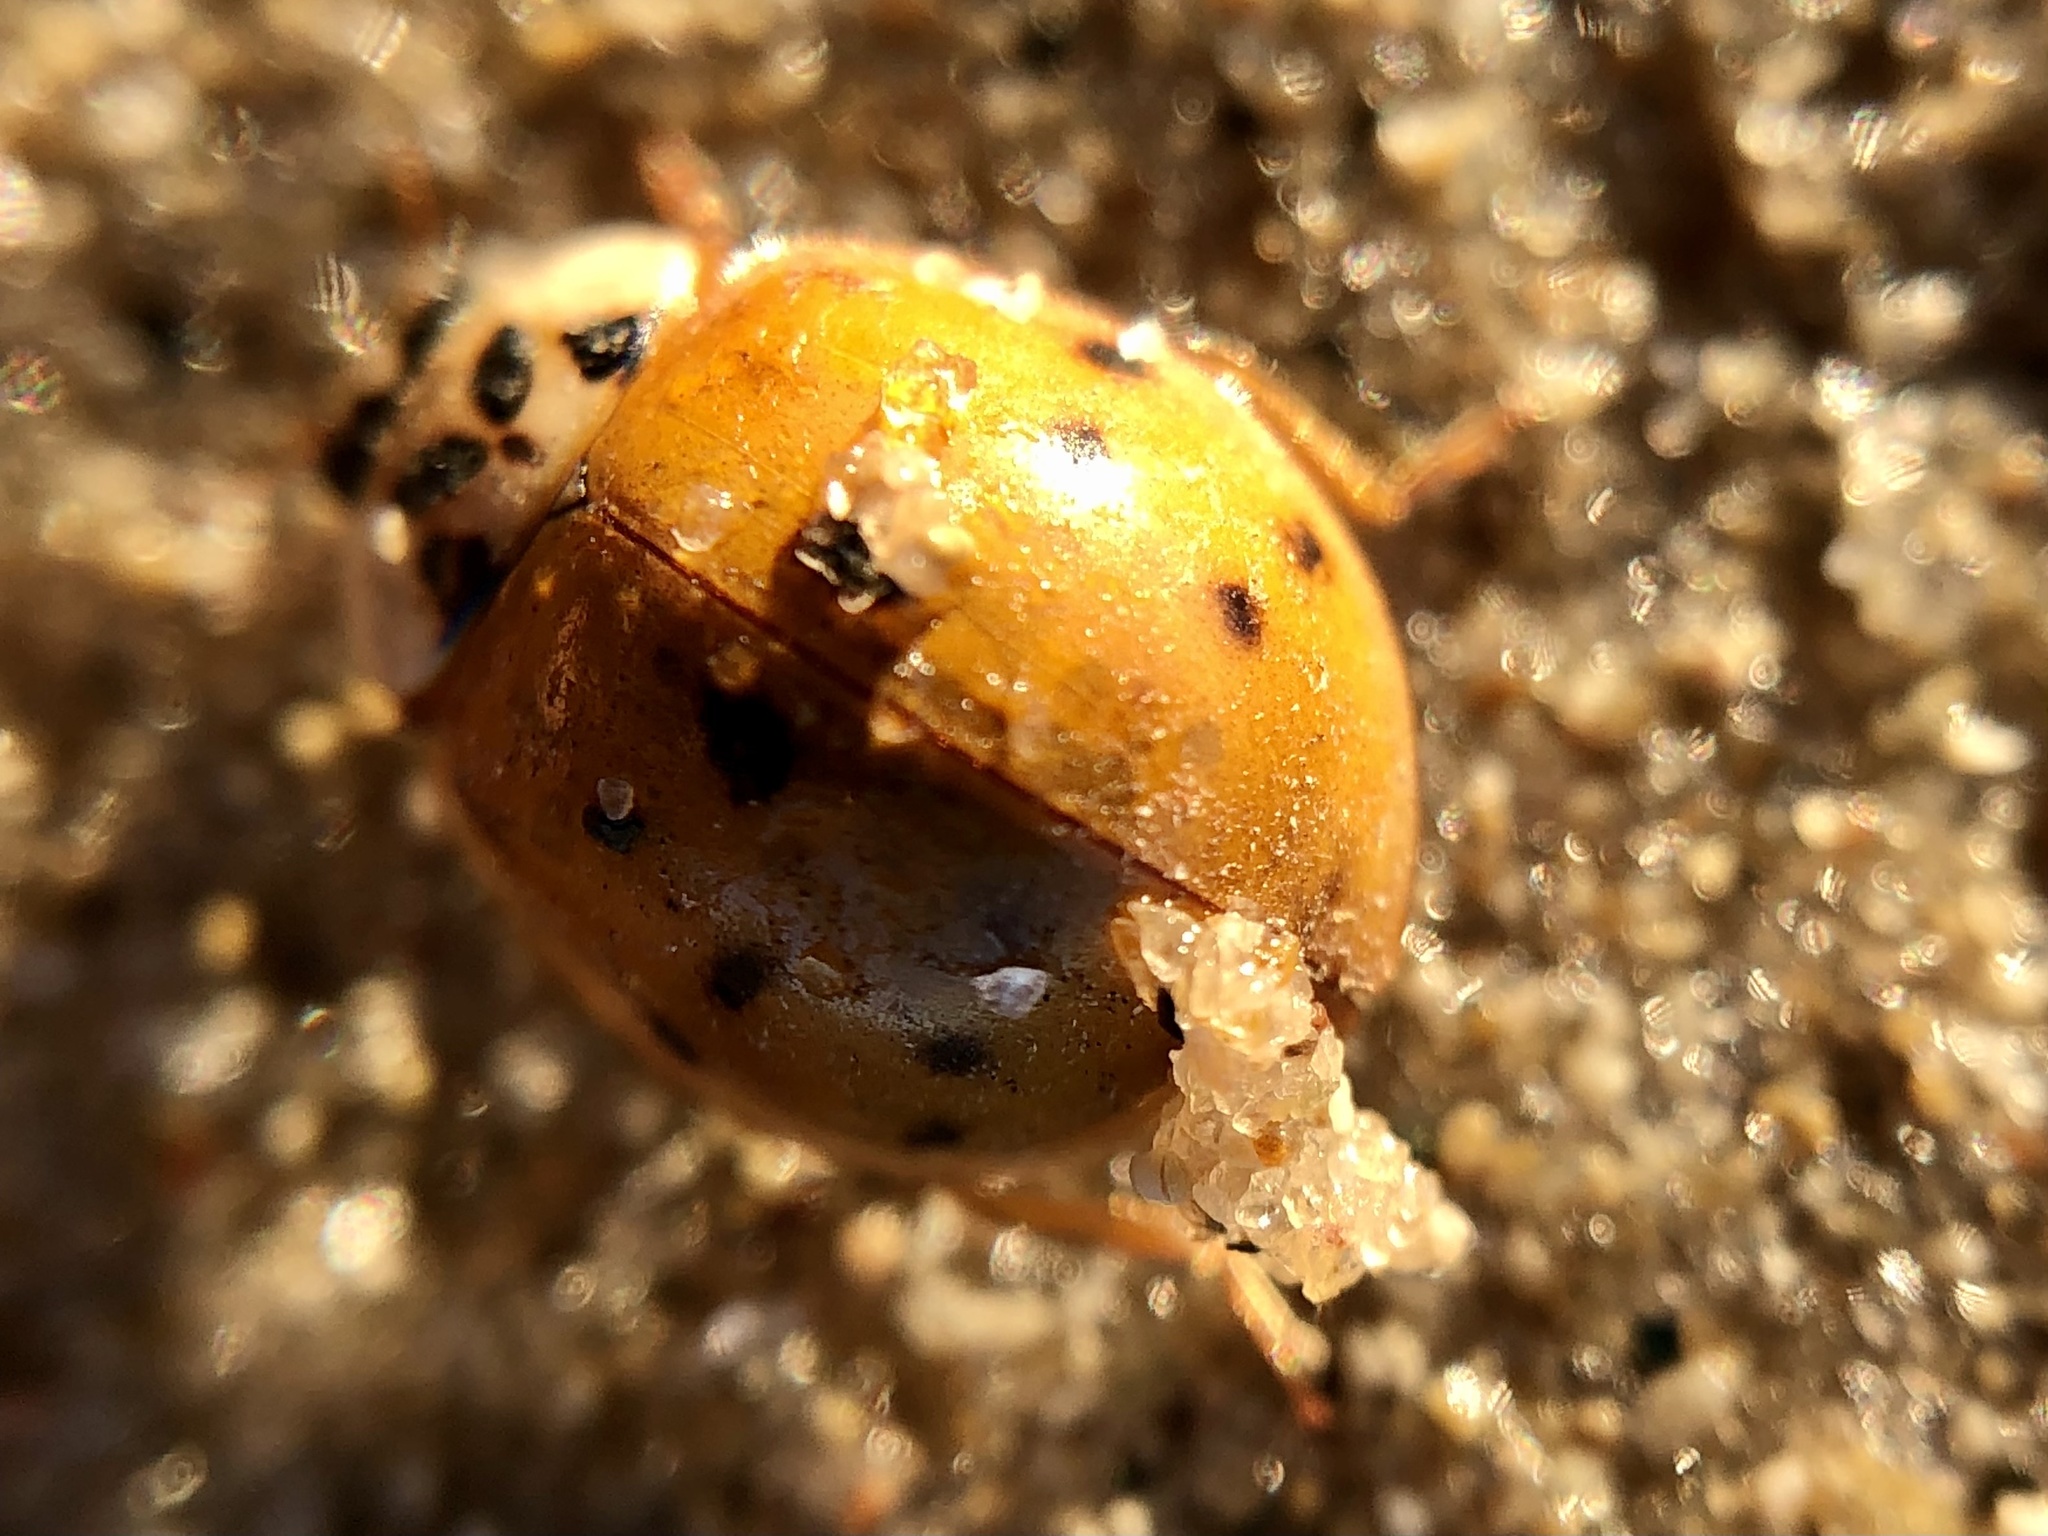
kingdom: Animalia
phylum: Arthropoda
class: Insecta
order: Coleoptera
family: Coccinellidae
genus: Harmonia
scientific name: Harmonia axyridis
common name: Harlequin ladybird
